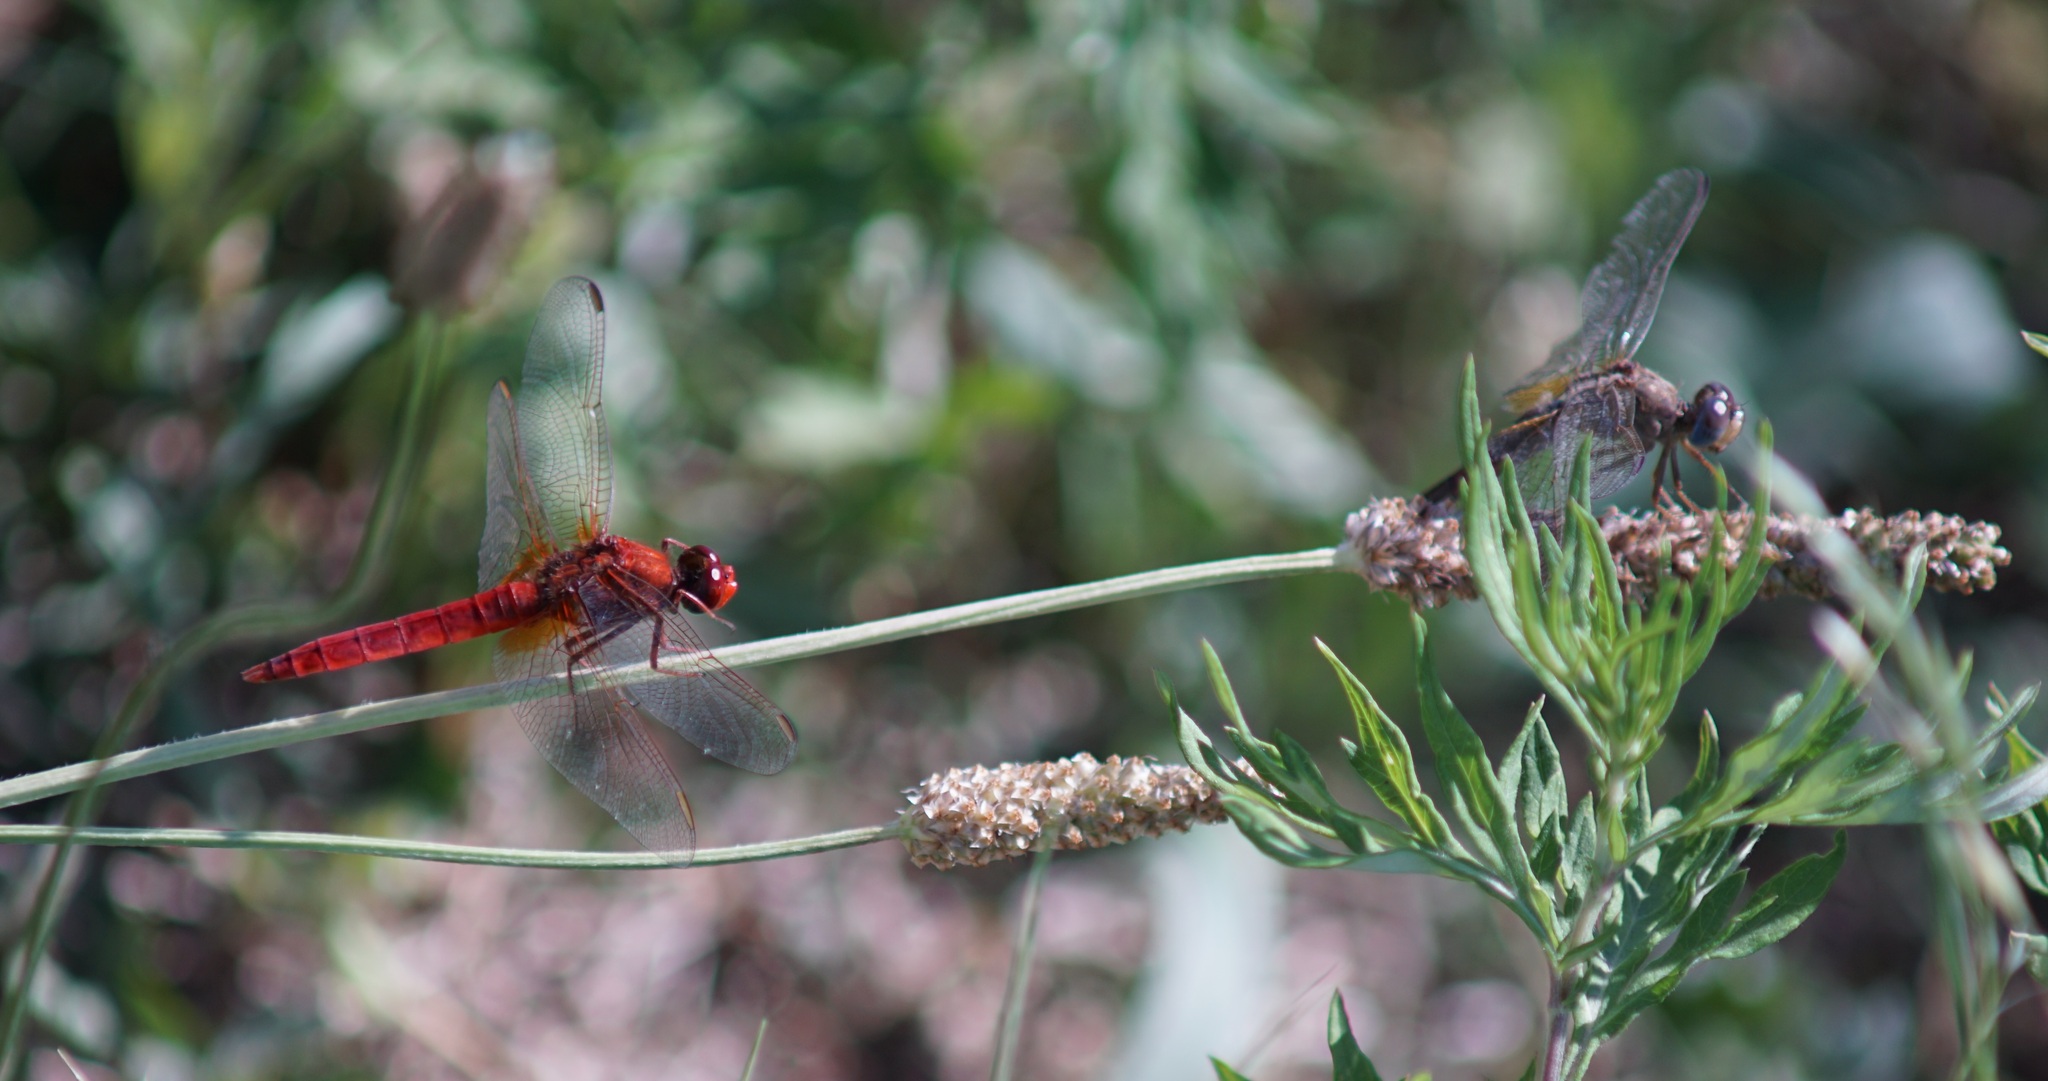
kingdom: Animalia
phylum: Arthropoda
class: Insecta
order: Odonata
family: Libellulidae
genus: Crocothemis
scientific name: Crocothemis erythraea
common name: Scarlet dragonfly
